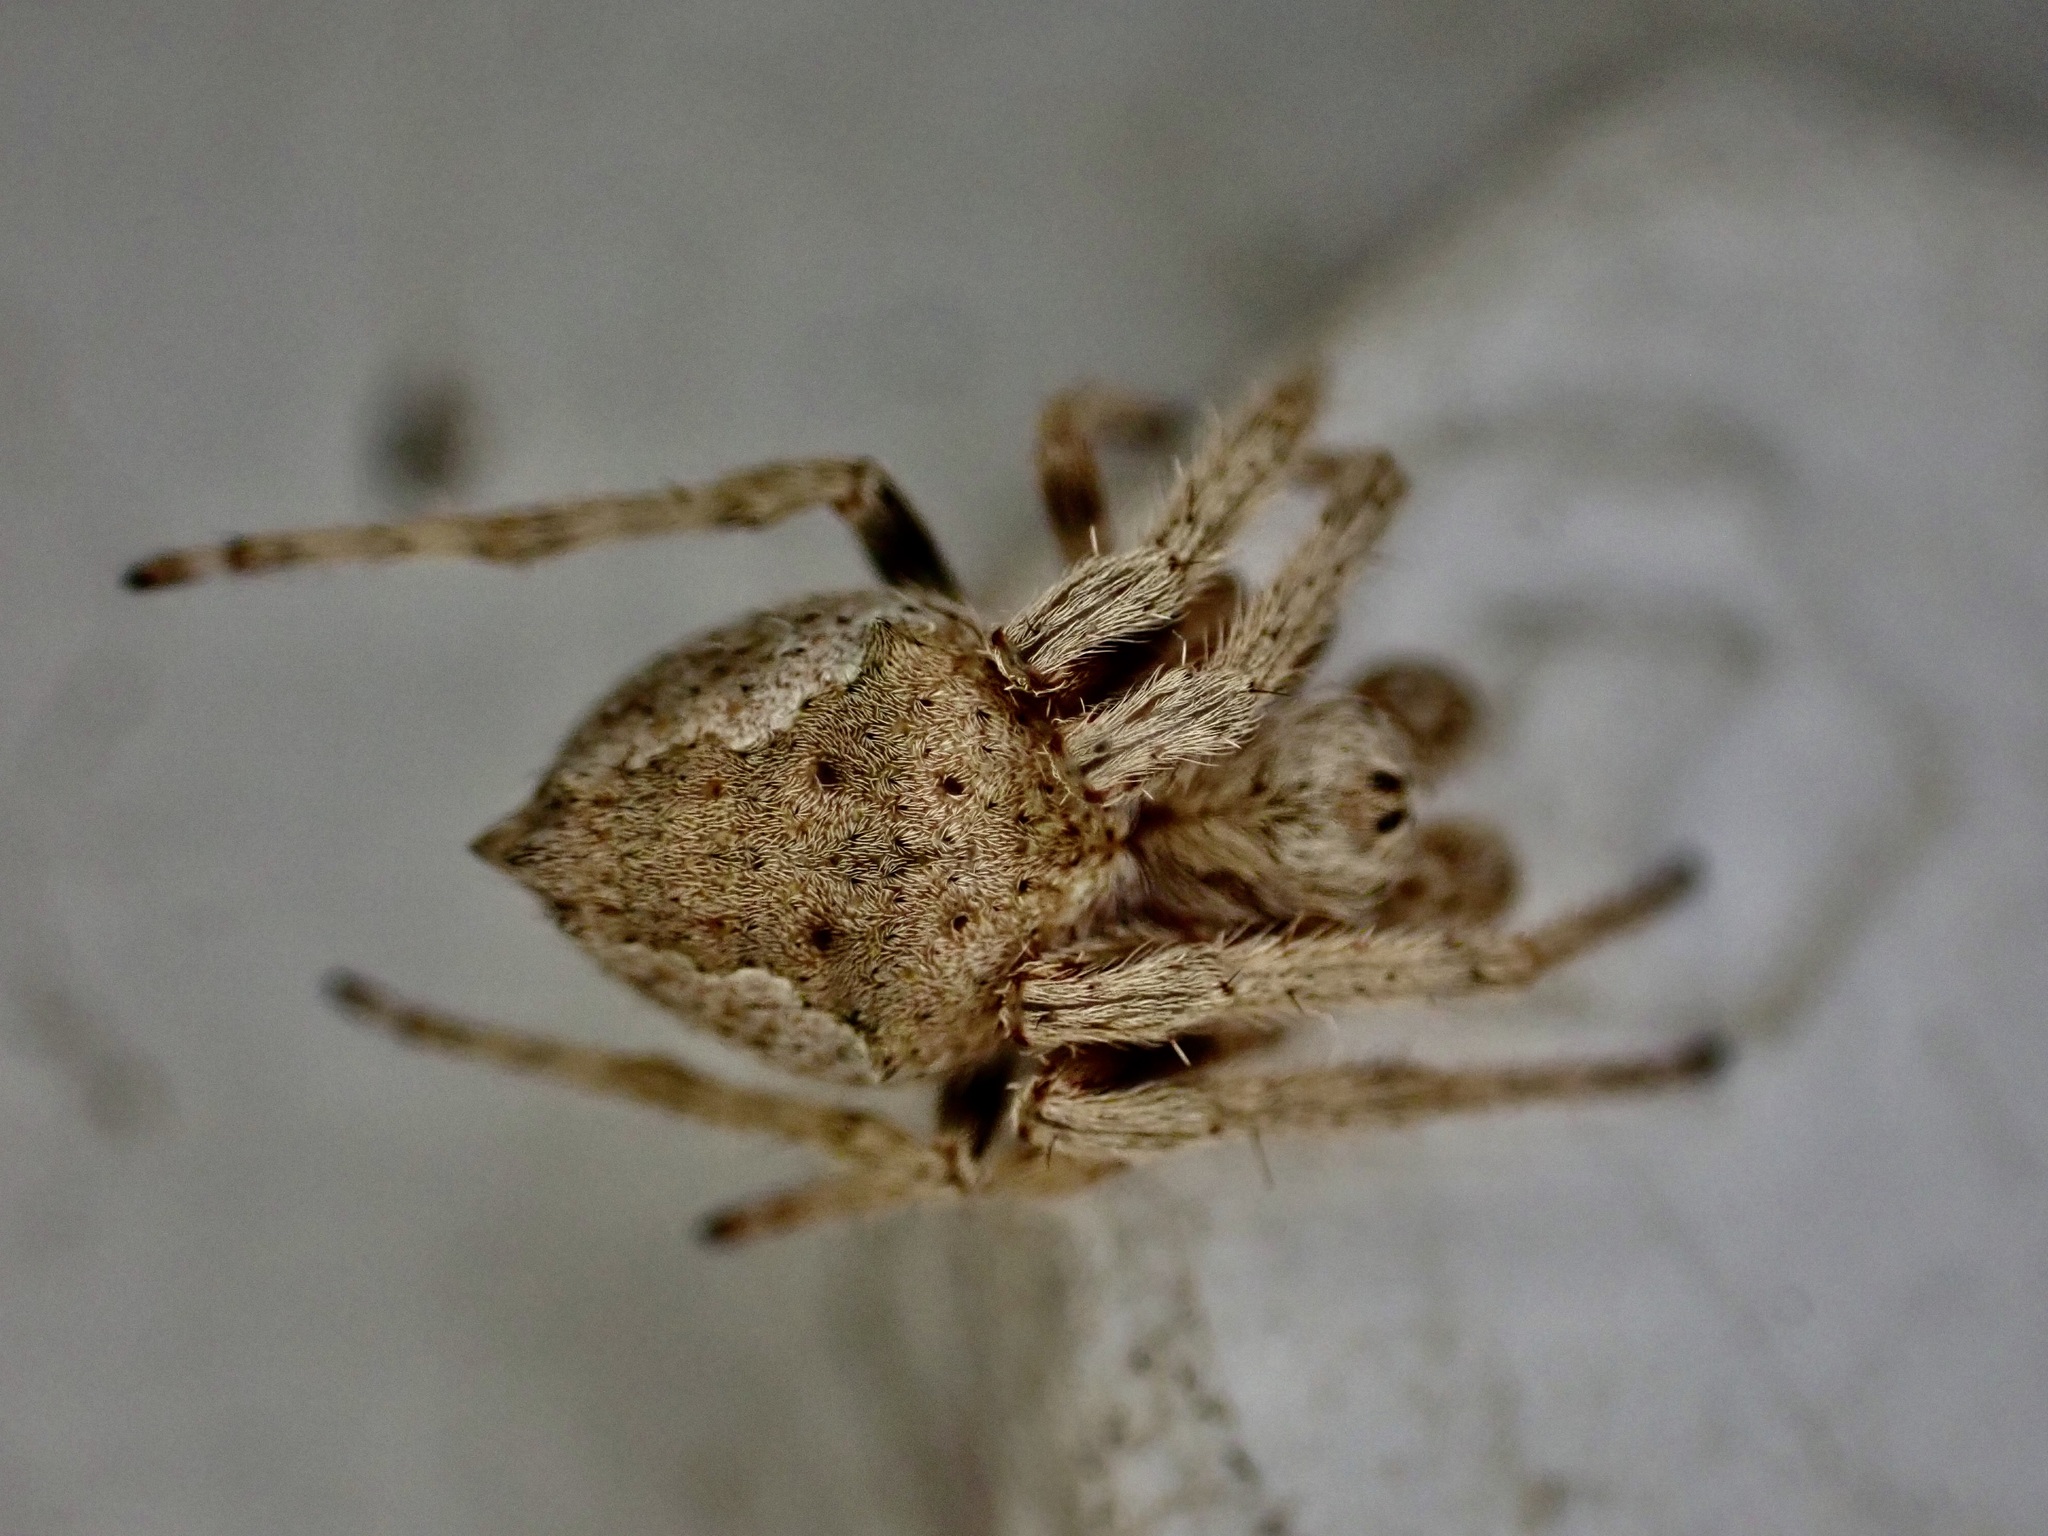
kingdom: Animalia
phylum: Arthropoda
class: Arachnida
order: Araneae
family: Araneidae
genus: Eriophora
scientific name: Eriophora pustulosa
